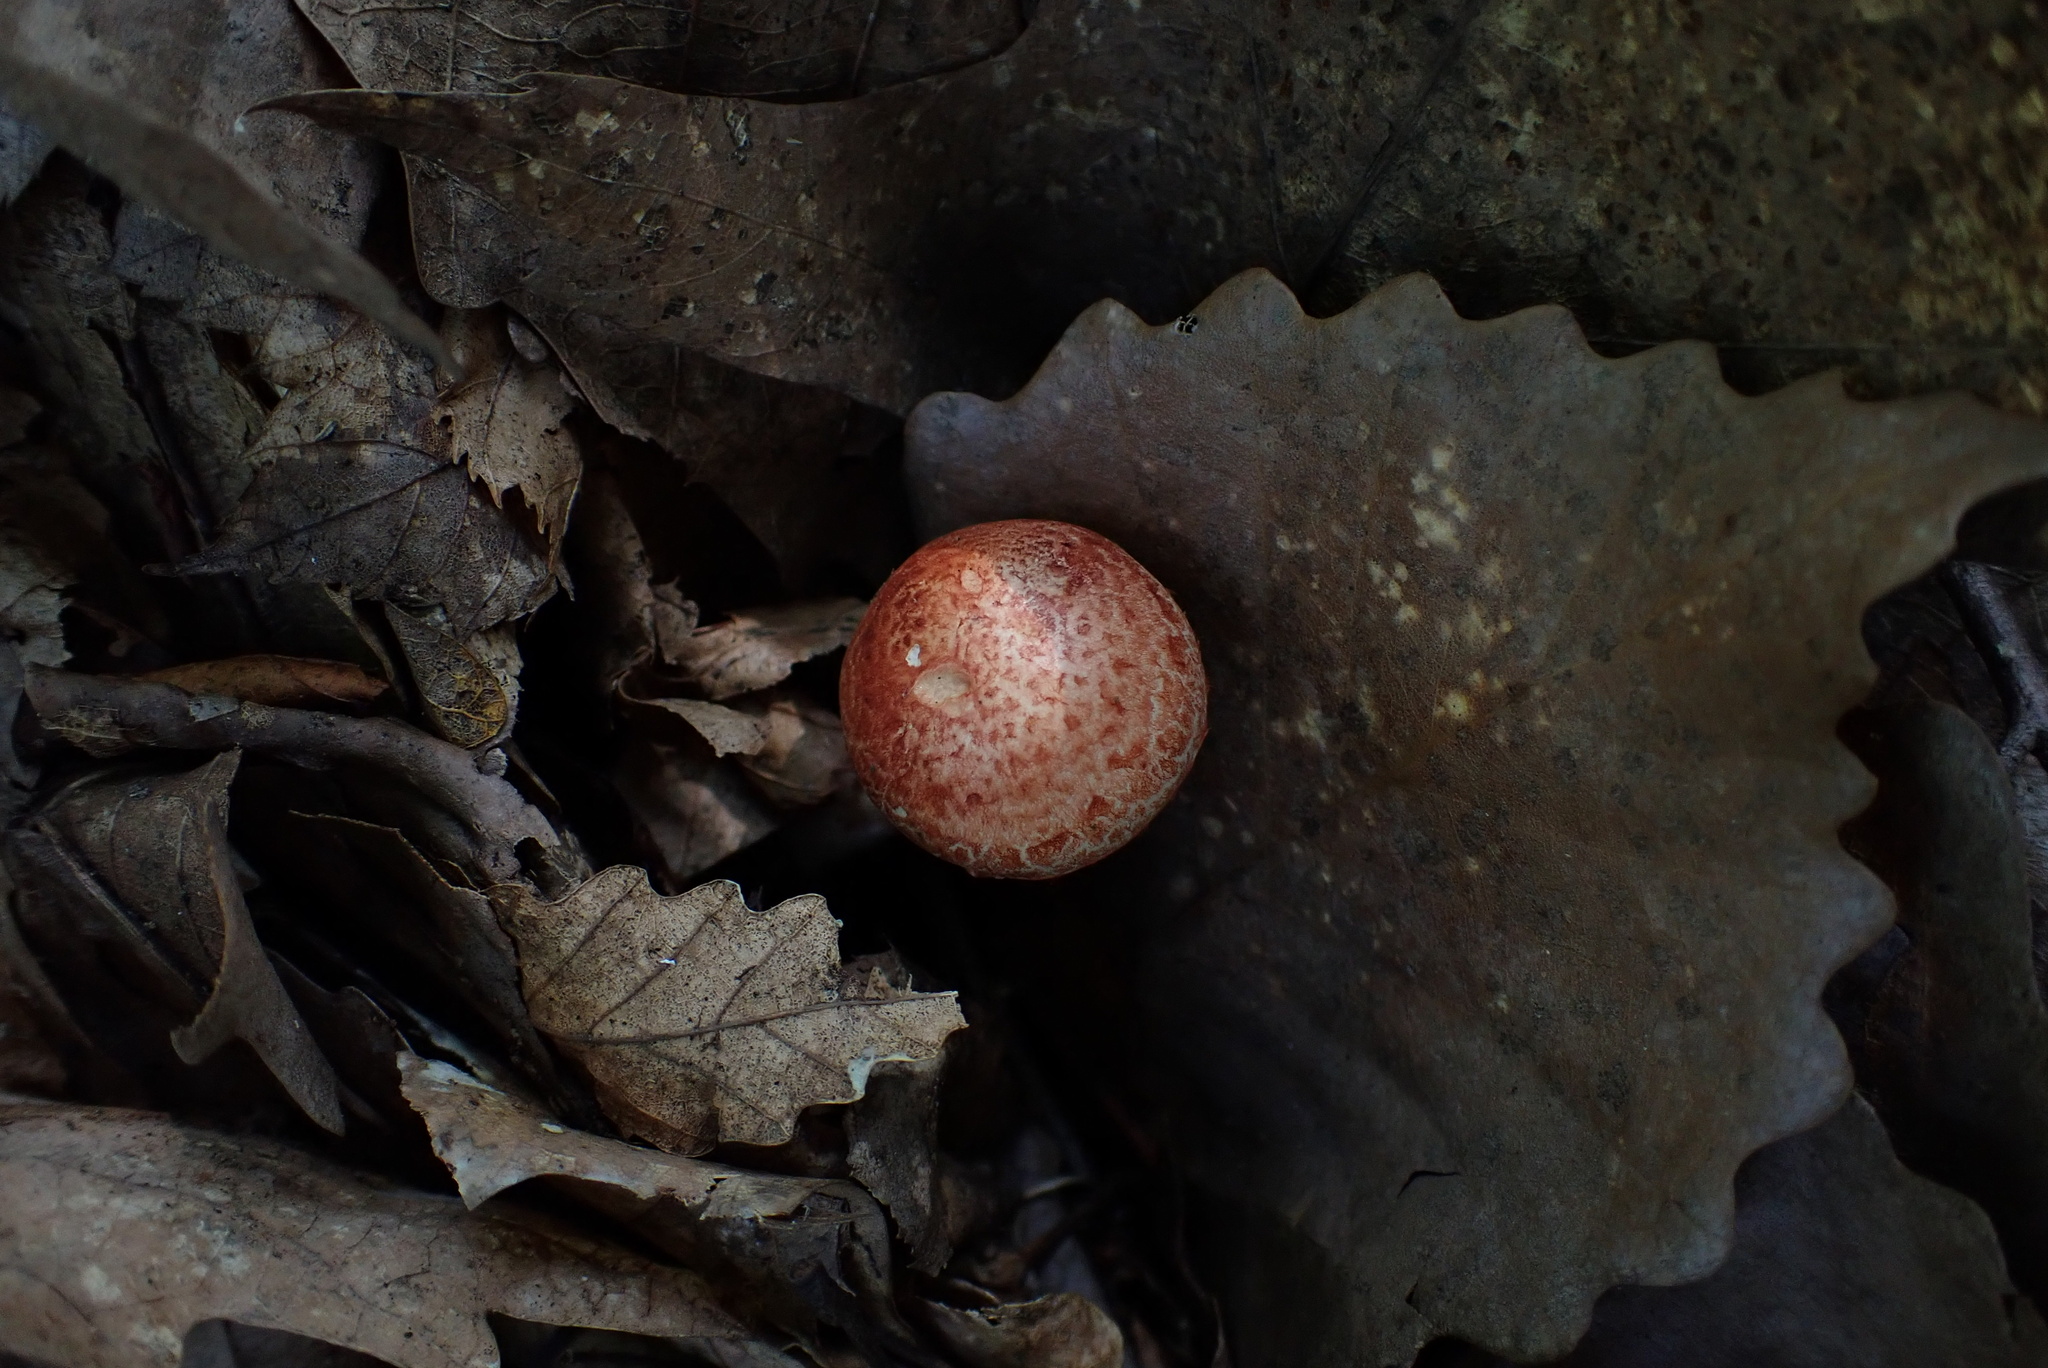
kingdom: Fungi
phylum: Basidiomycota
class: Agaricomycetes
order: Agaricales
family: Cortinariaceae
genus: Cortinarius
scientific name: Cortinarius bolaris
